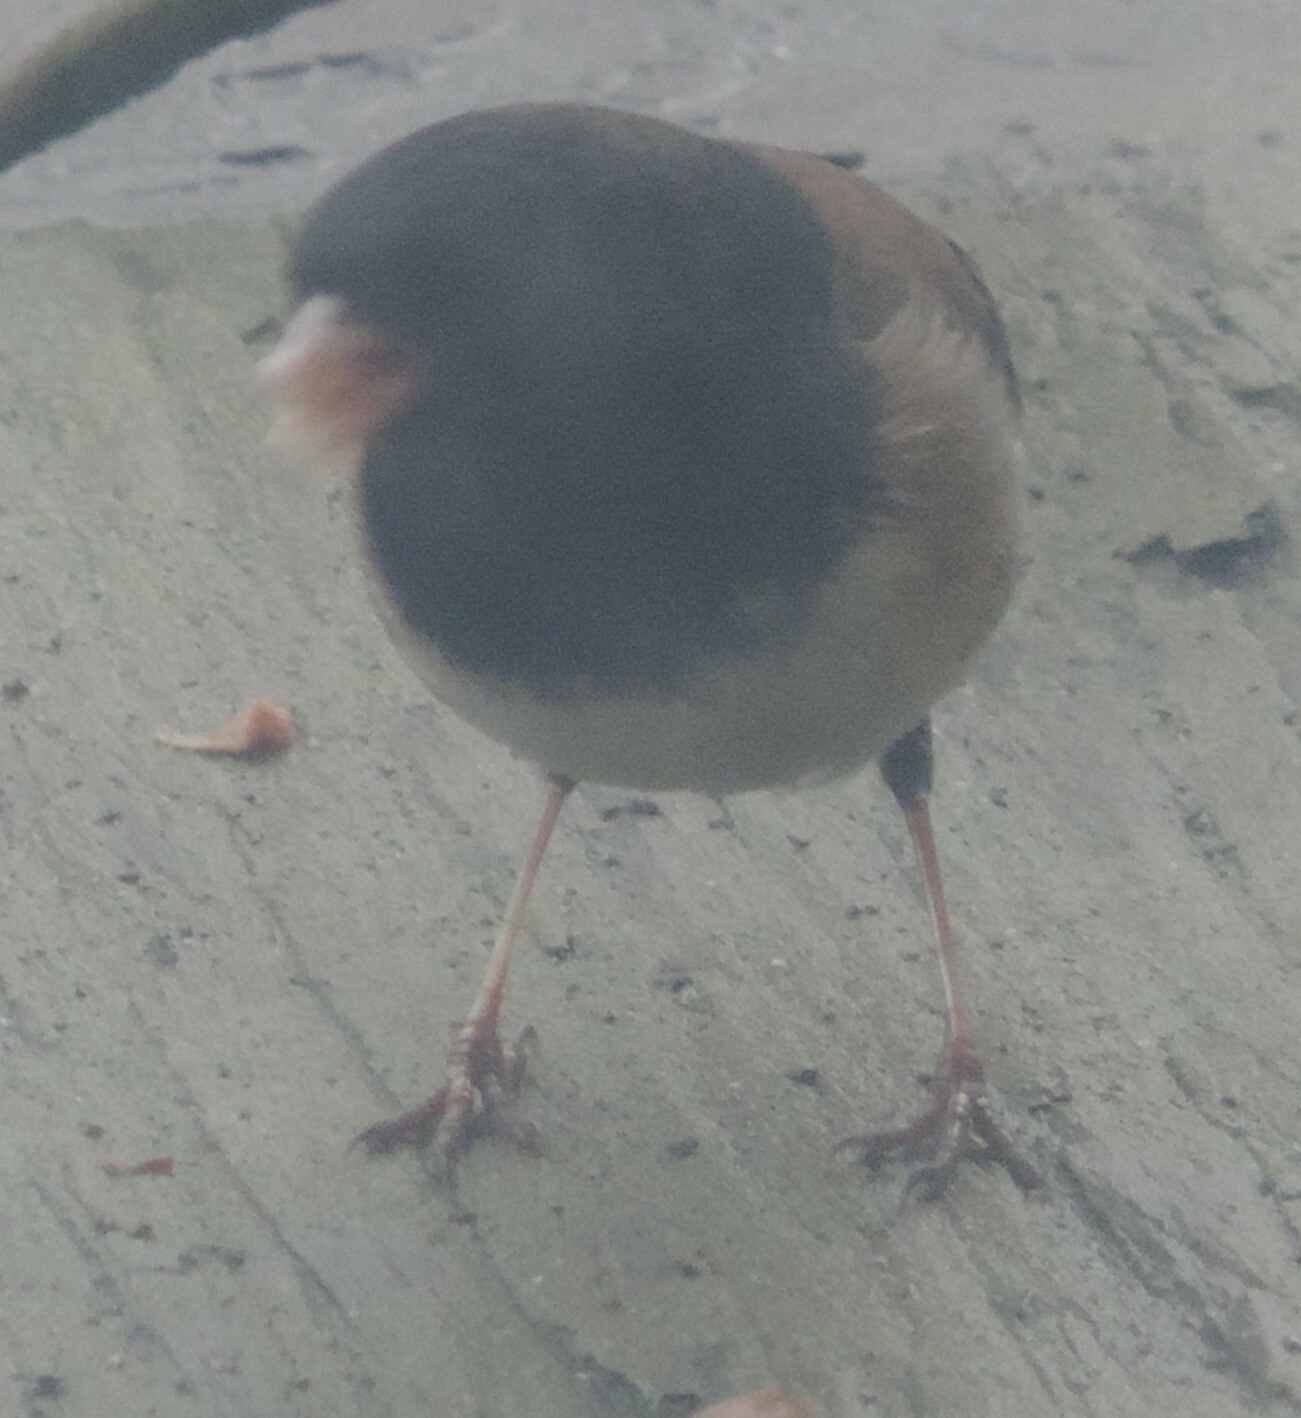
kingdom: Animalia
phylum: Chordata
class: Aves
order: Passeriformes
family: Passerellidae
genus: Junco
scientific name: Junco hyemalis
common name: Dark-eyed junco
